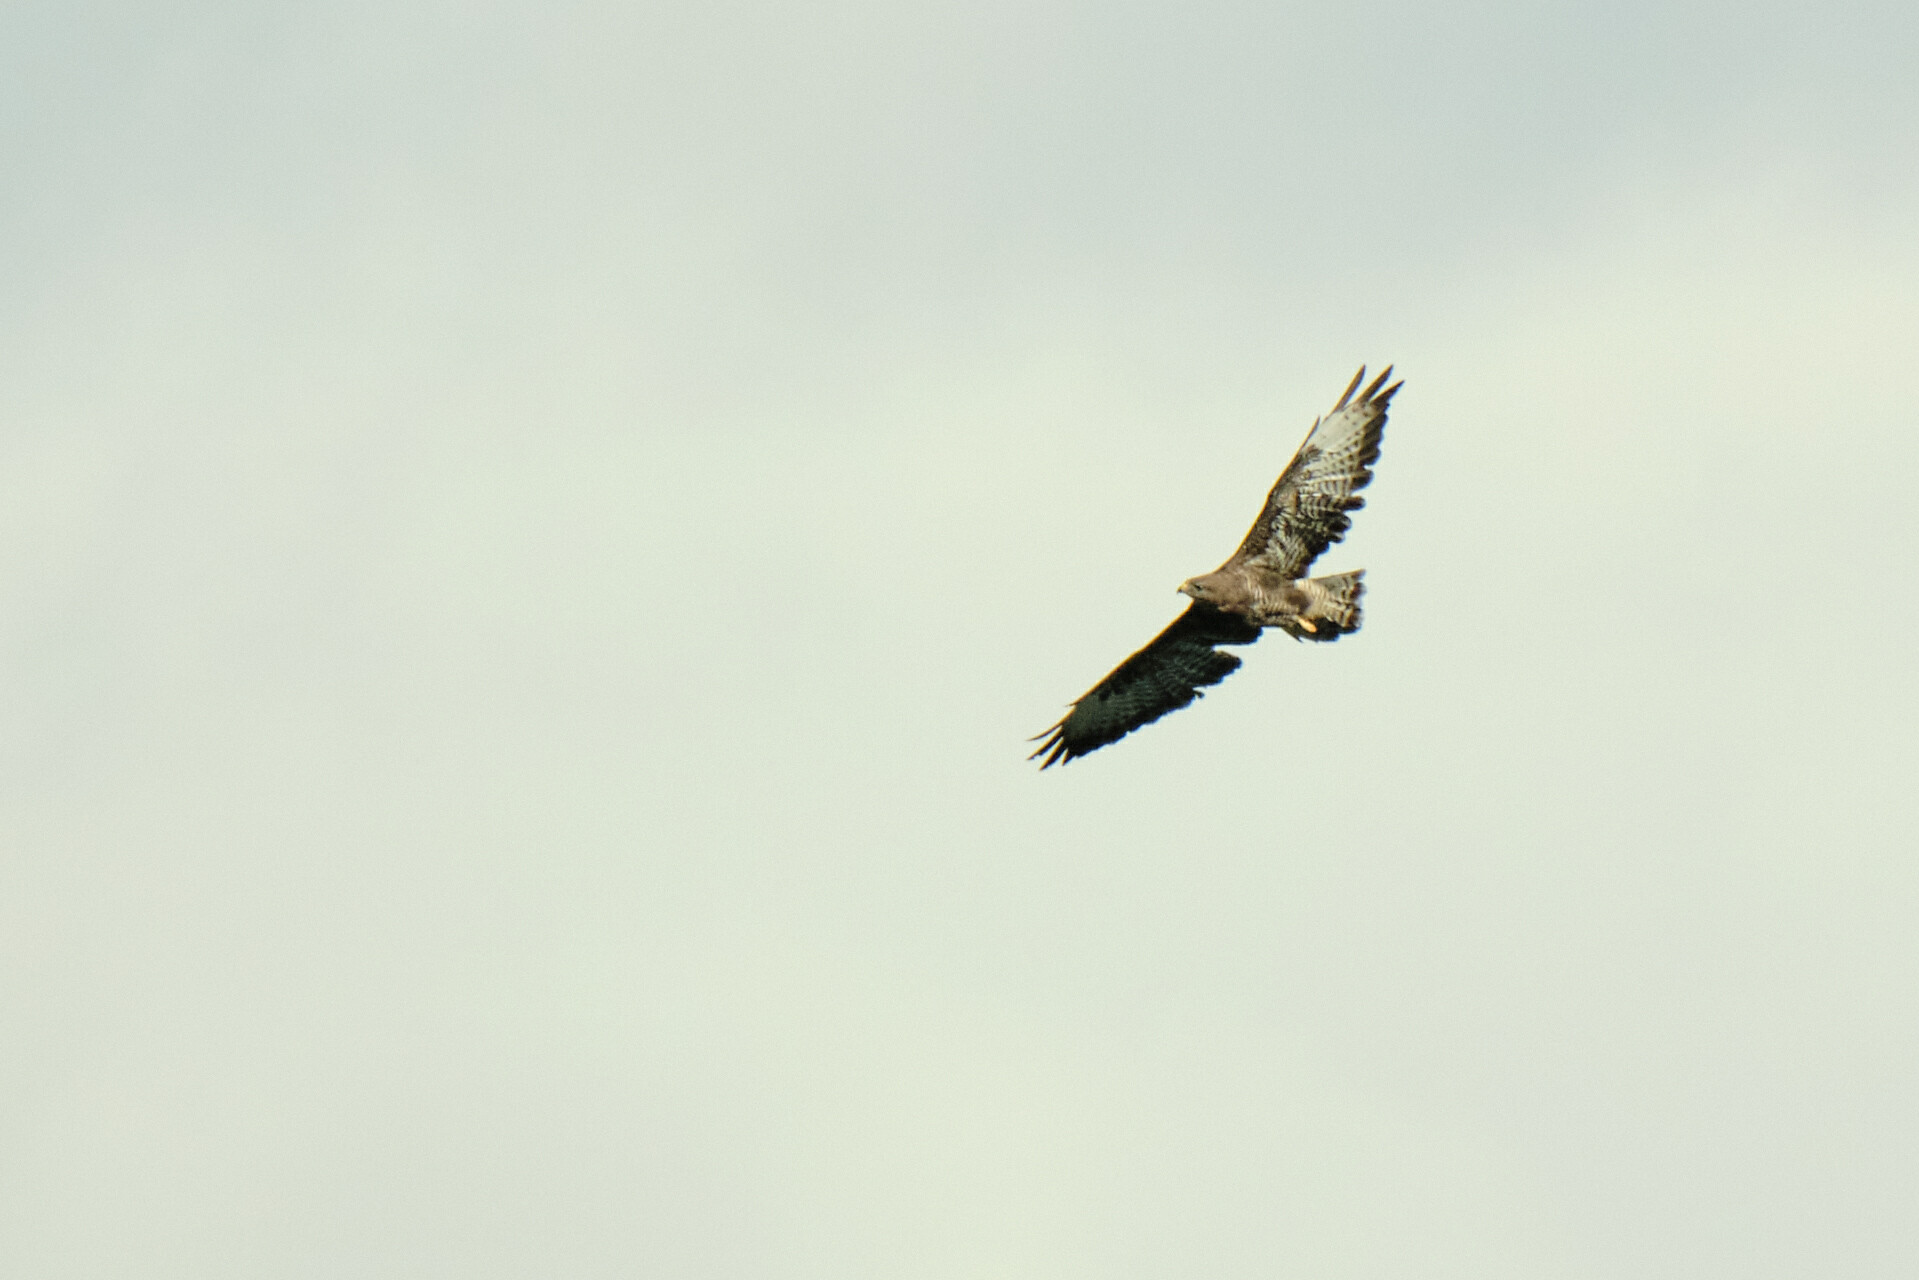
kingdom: Animalia
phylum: Chordata
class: Aves
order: Accipitriformes
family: Accipitridae
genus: Buteo
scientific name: Buteo buteo
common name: Common buzzard
